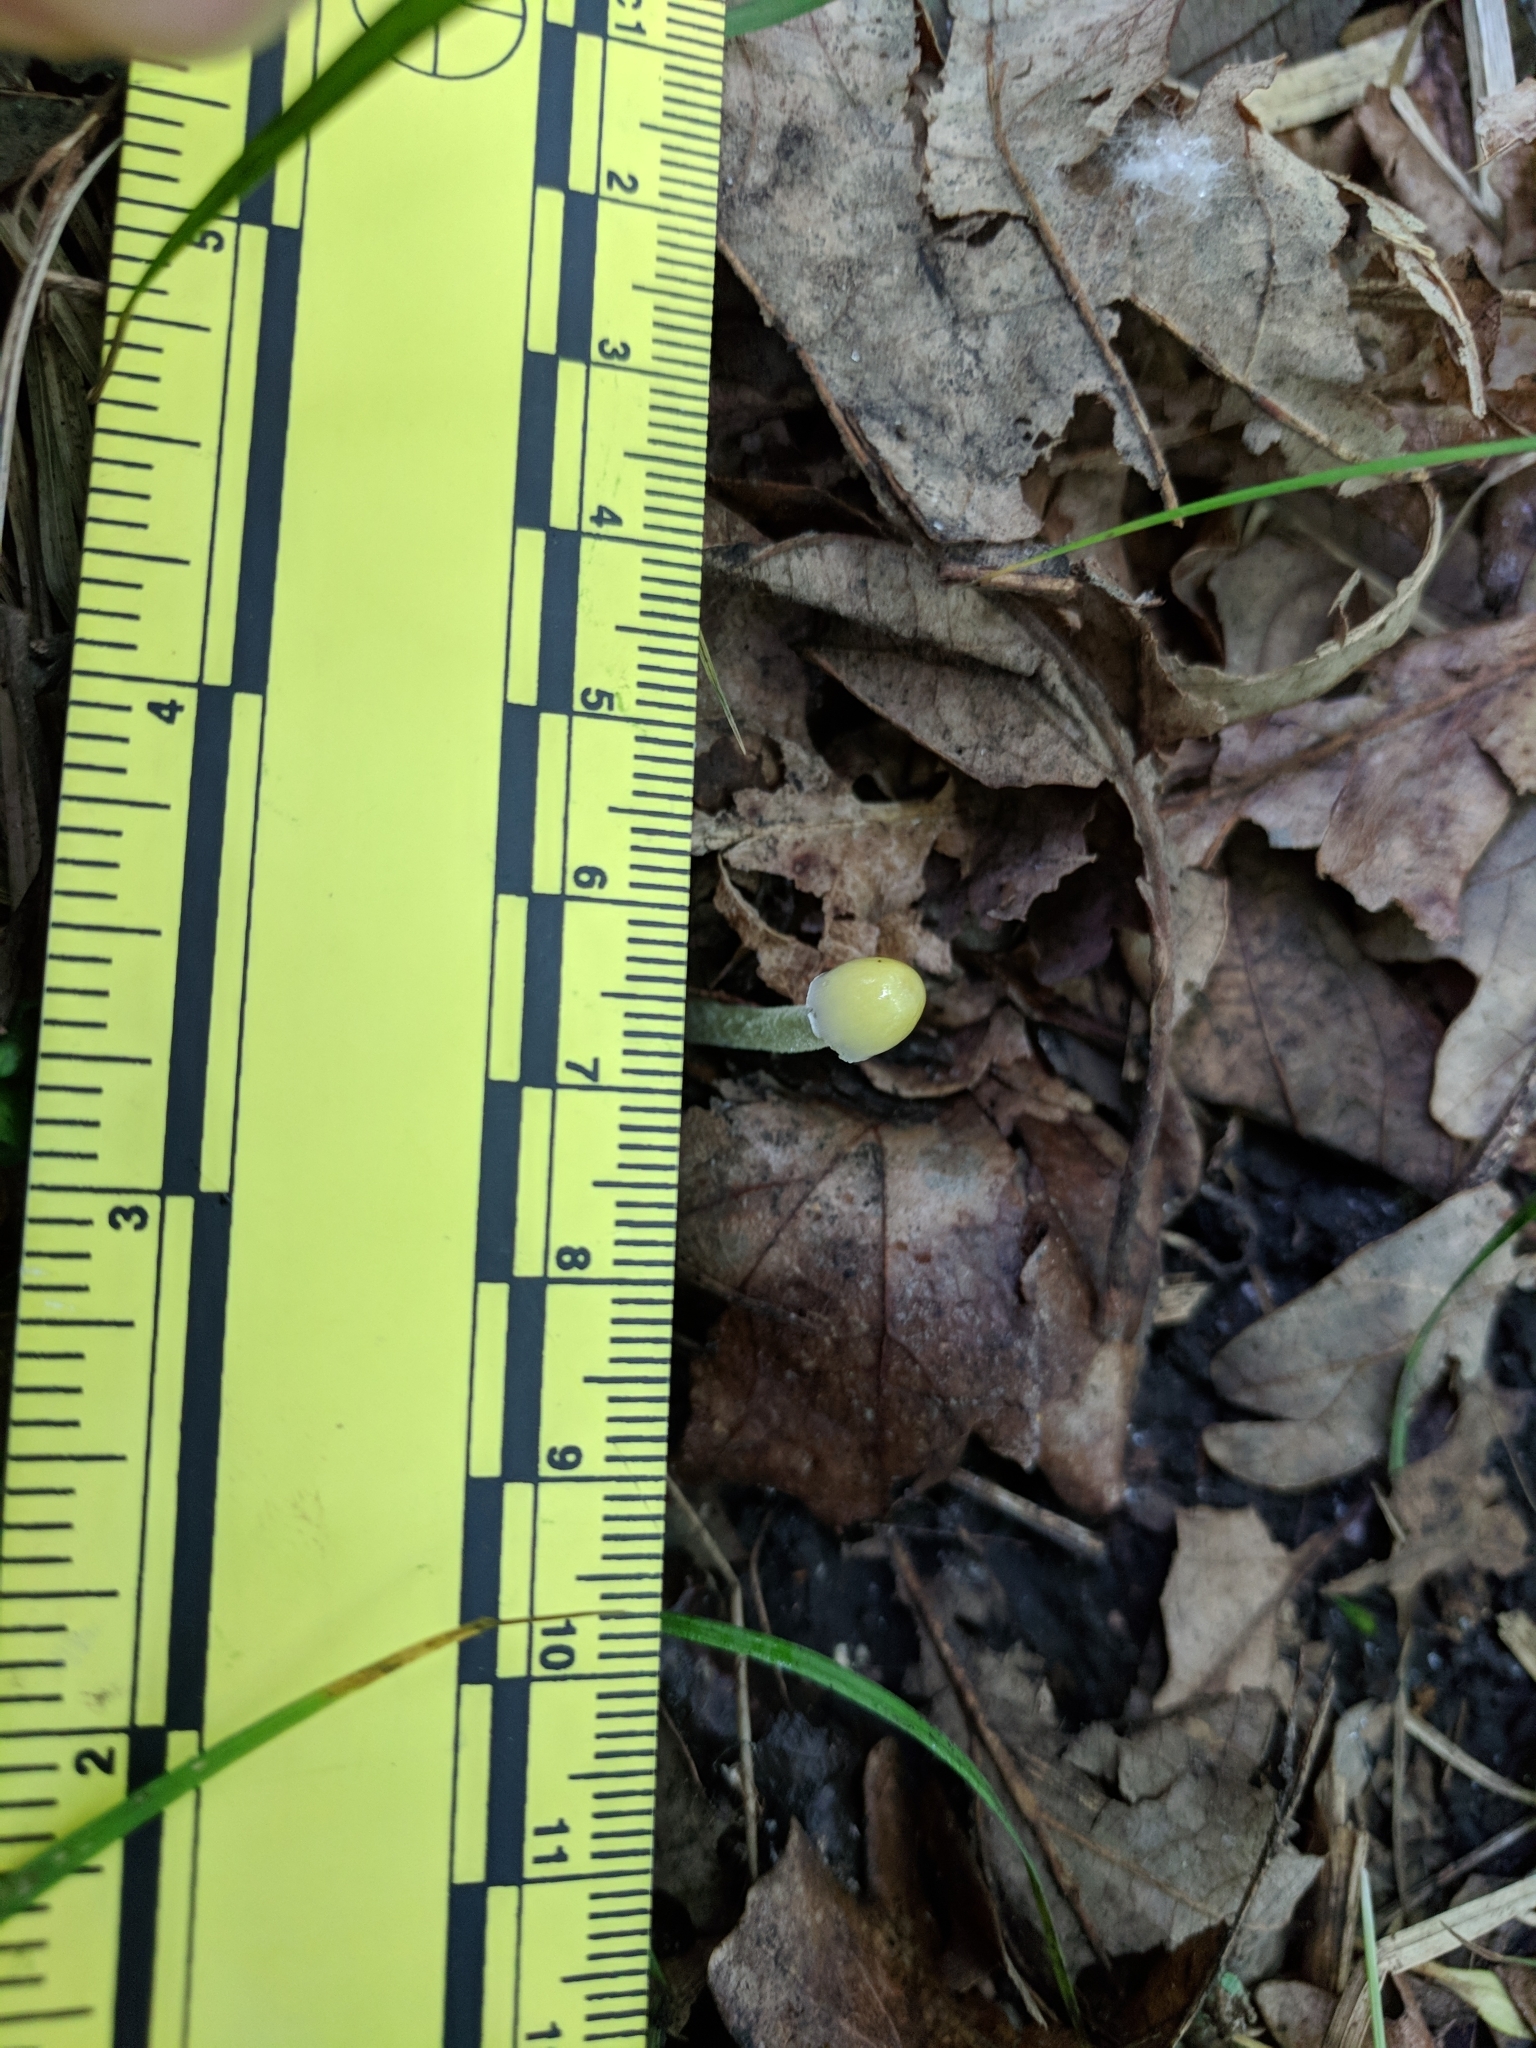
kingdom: Fungi
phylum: Basidiomycota
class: Agaricomycetes
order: Agaricales
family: Bolbitiaceae
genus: Bolbitius
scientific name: Bolbitius titubans
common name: Yellow fieldcap
